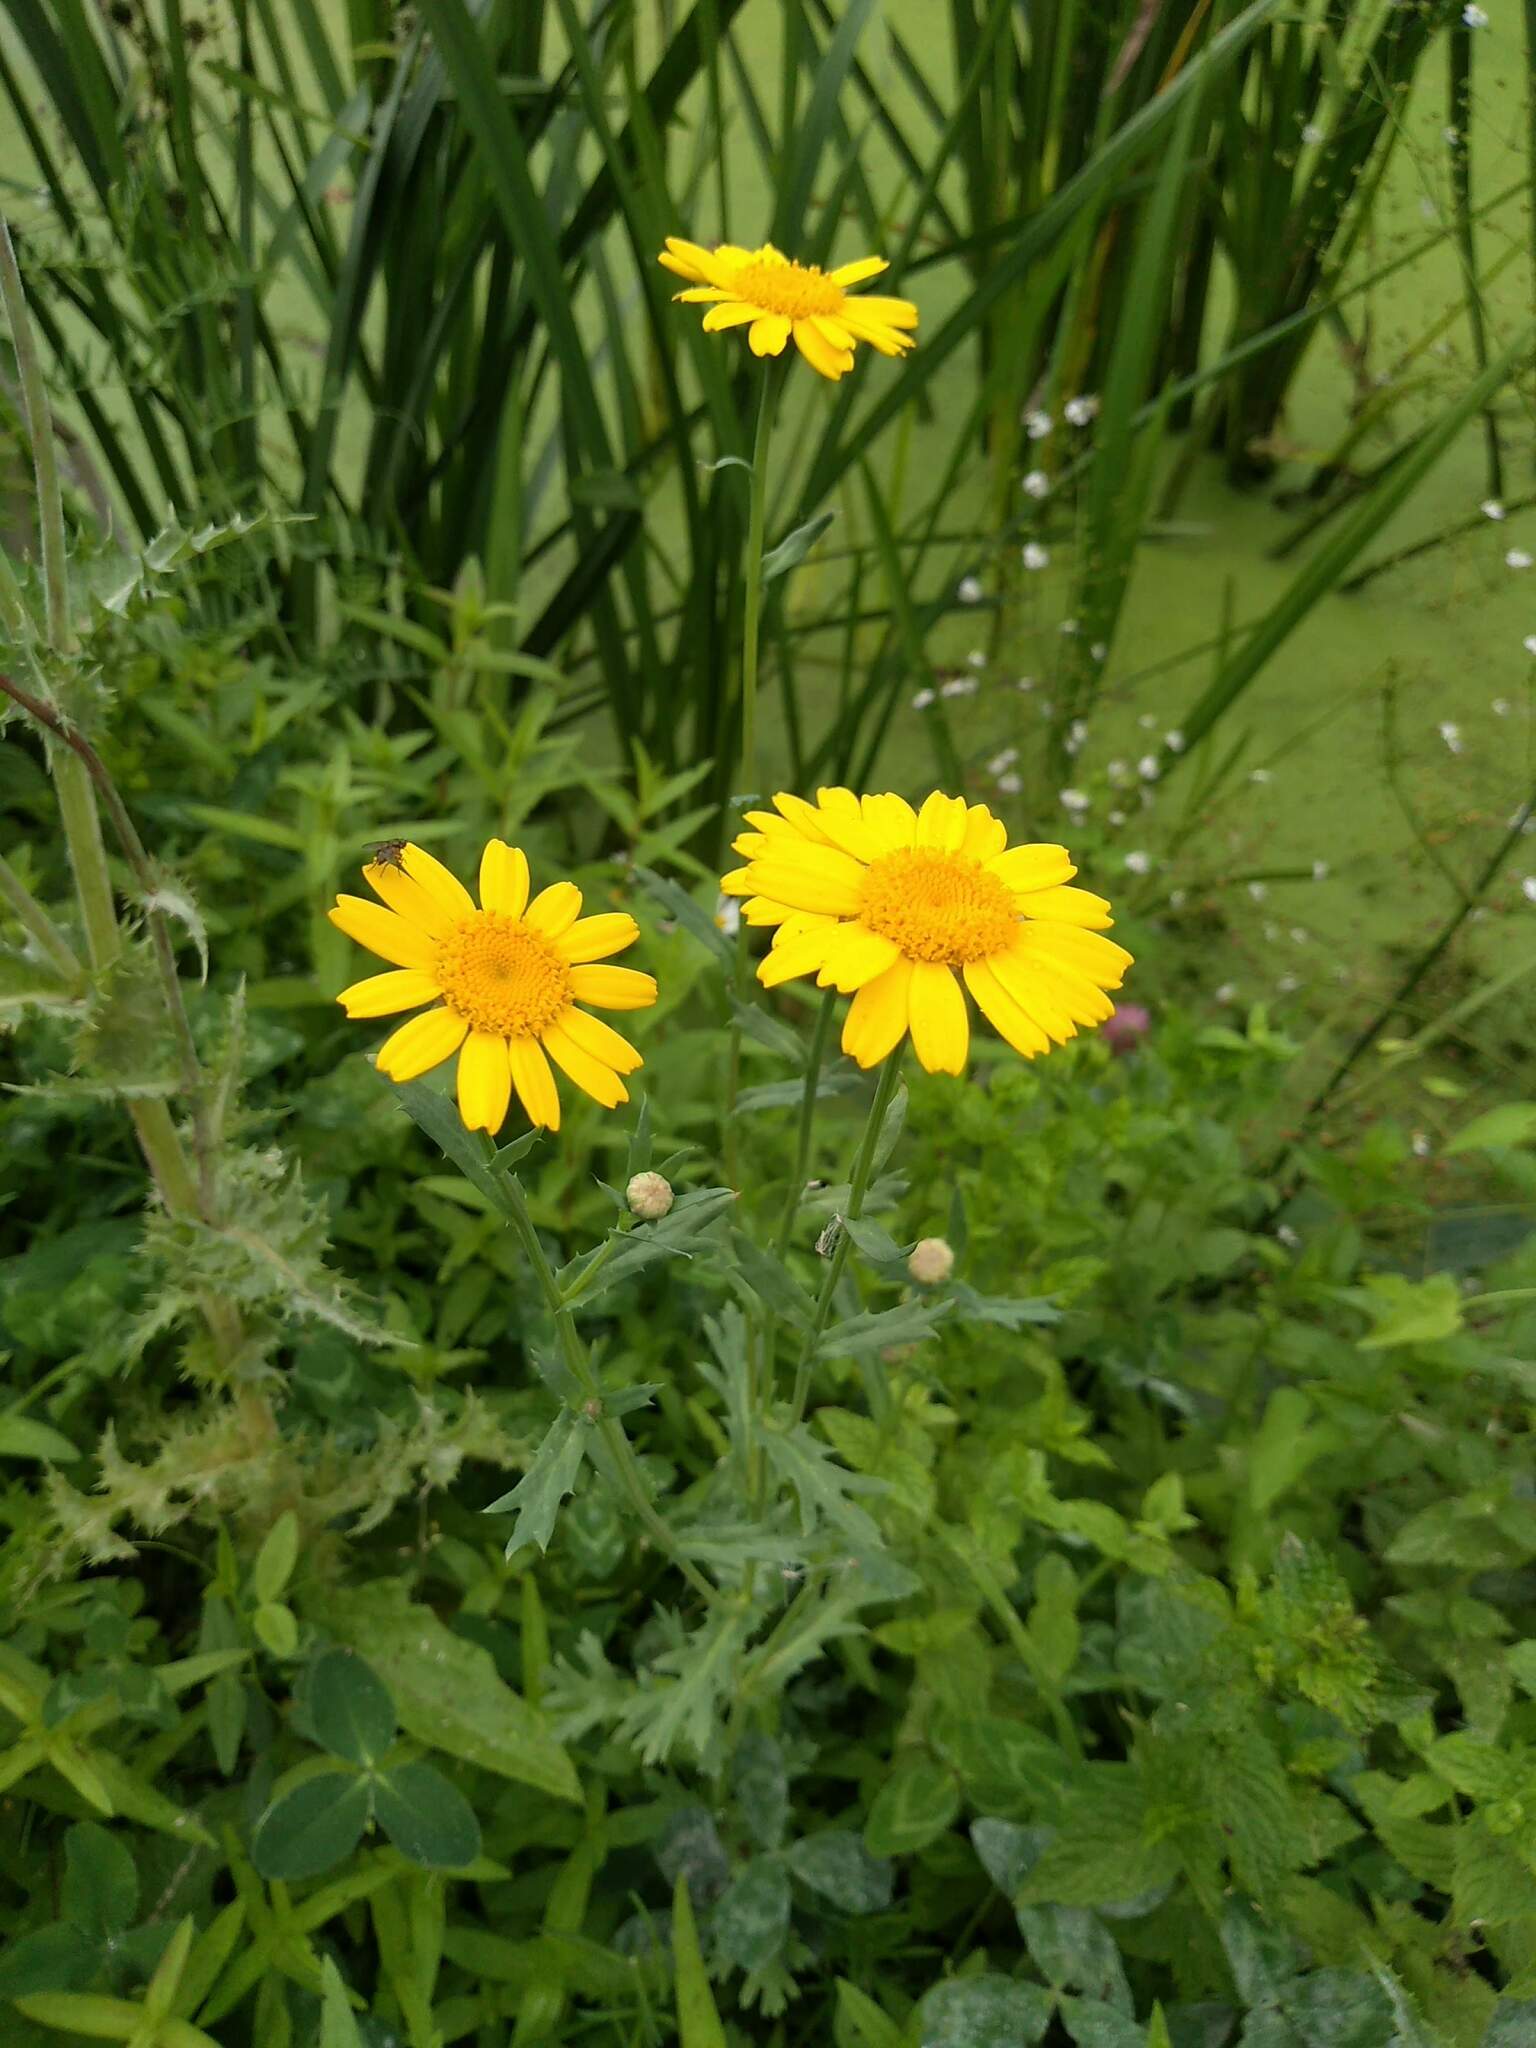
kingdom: Plantae
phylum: Tracheophyta
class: Magnoliopsida
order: Asterales
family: Asteraceae
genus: Glebionis
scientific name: Glebionis segetum
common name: Corndaisy
